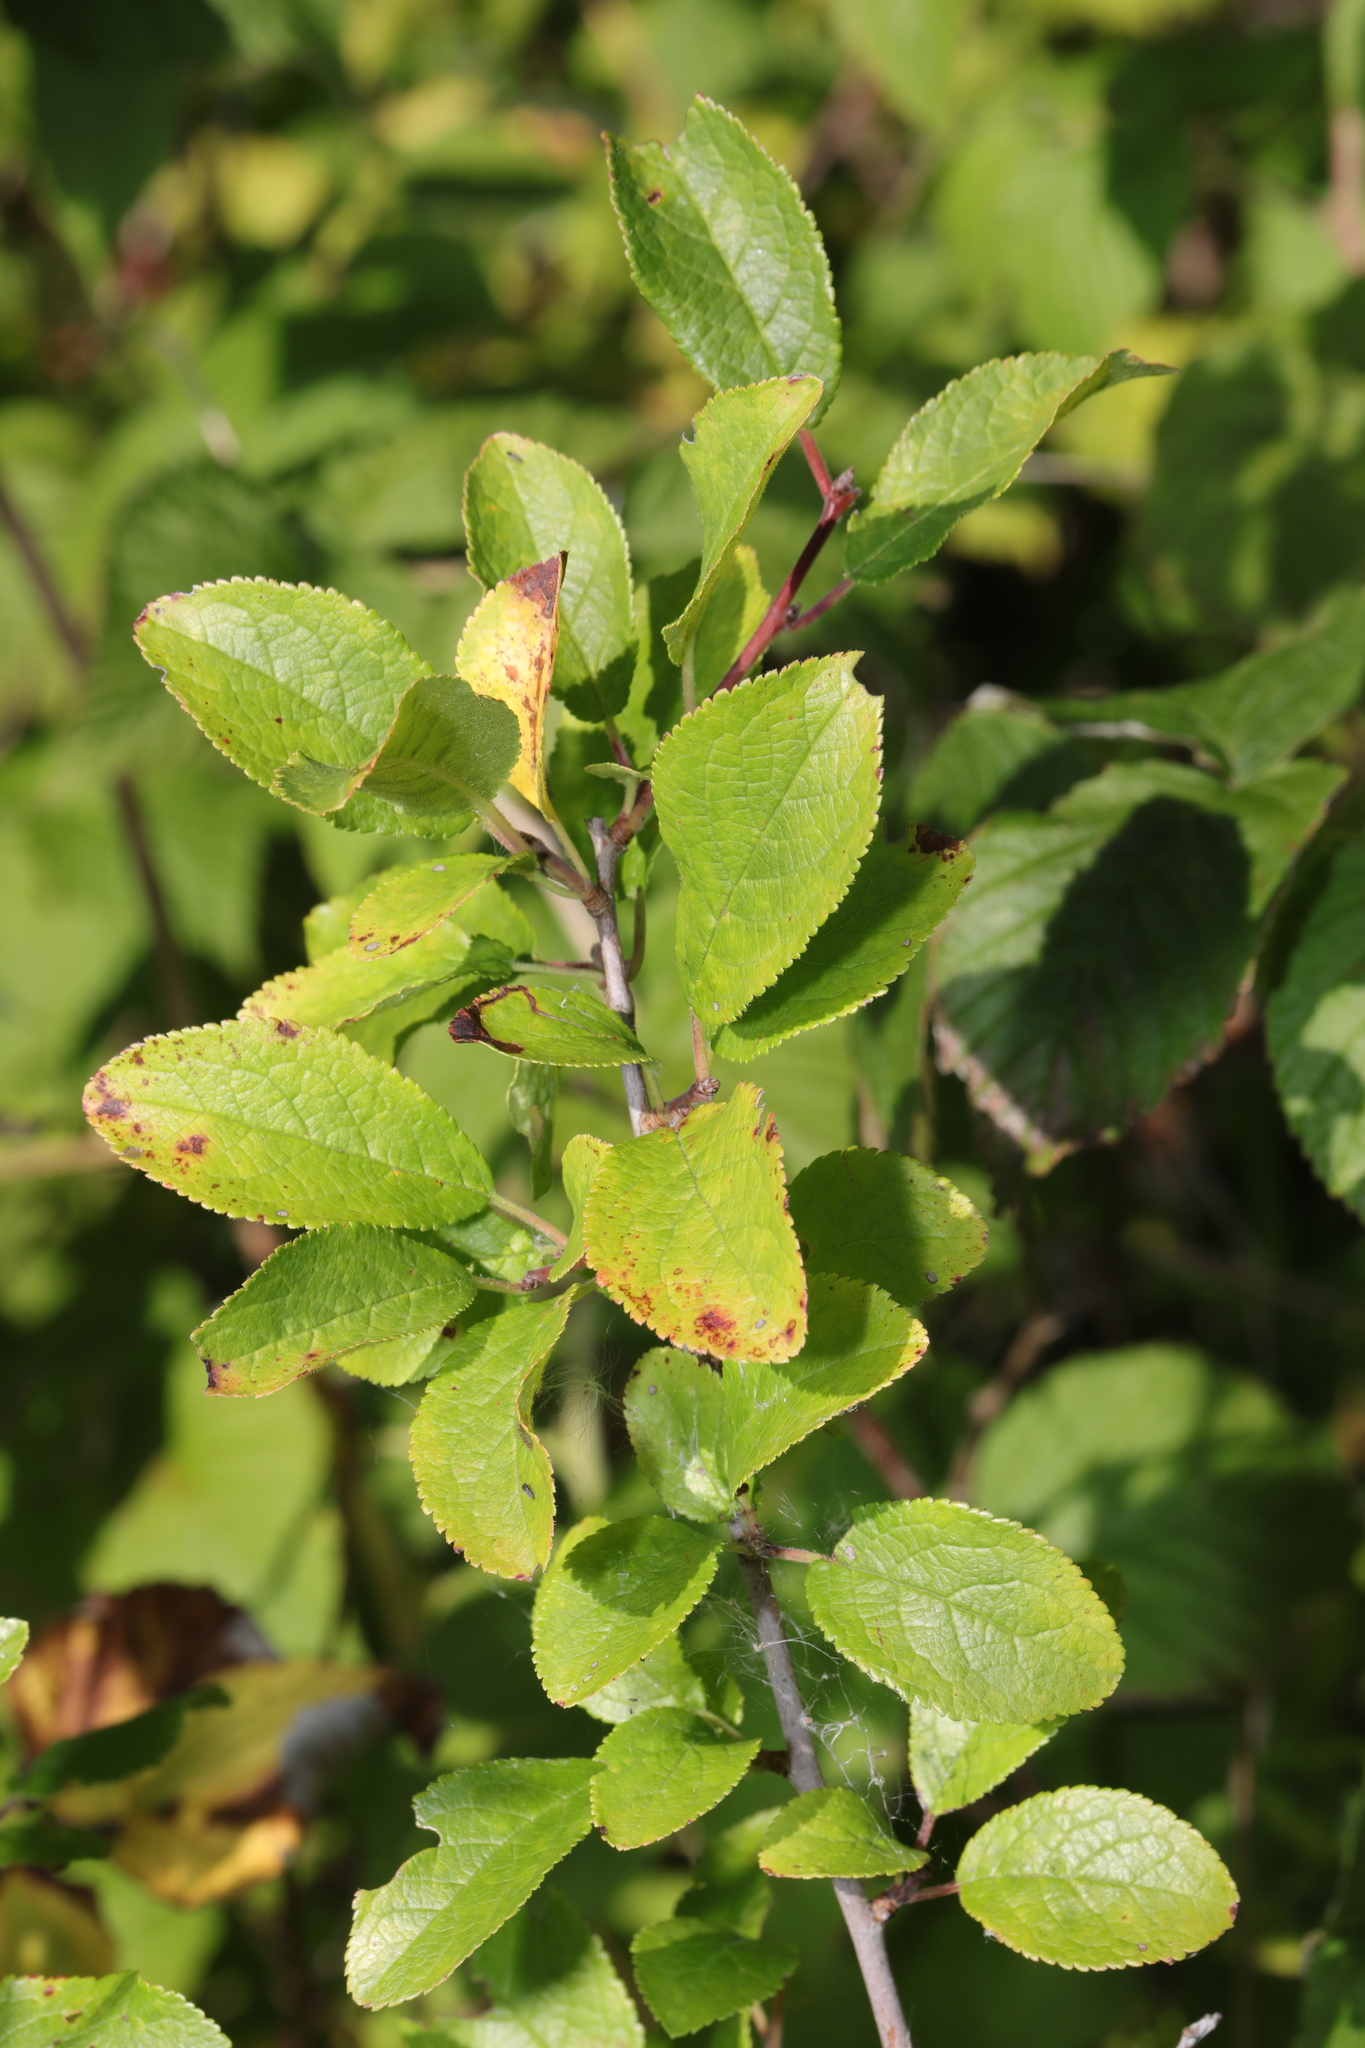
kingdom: Plantae
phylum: Tracheophyta
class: Magnoliopsida
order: Rosales
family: Rosaceae
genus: Prunus
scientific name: Prunus spinosa
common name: Blackthorn
